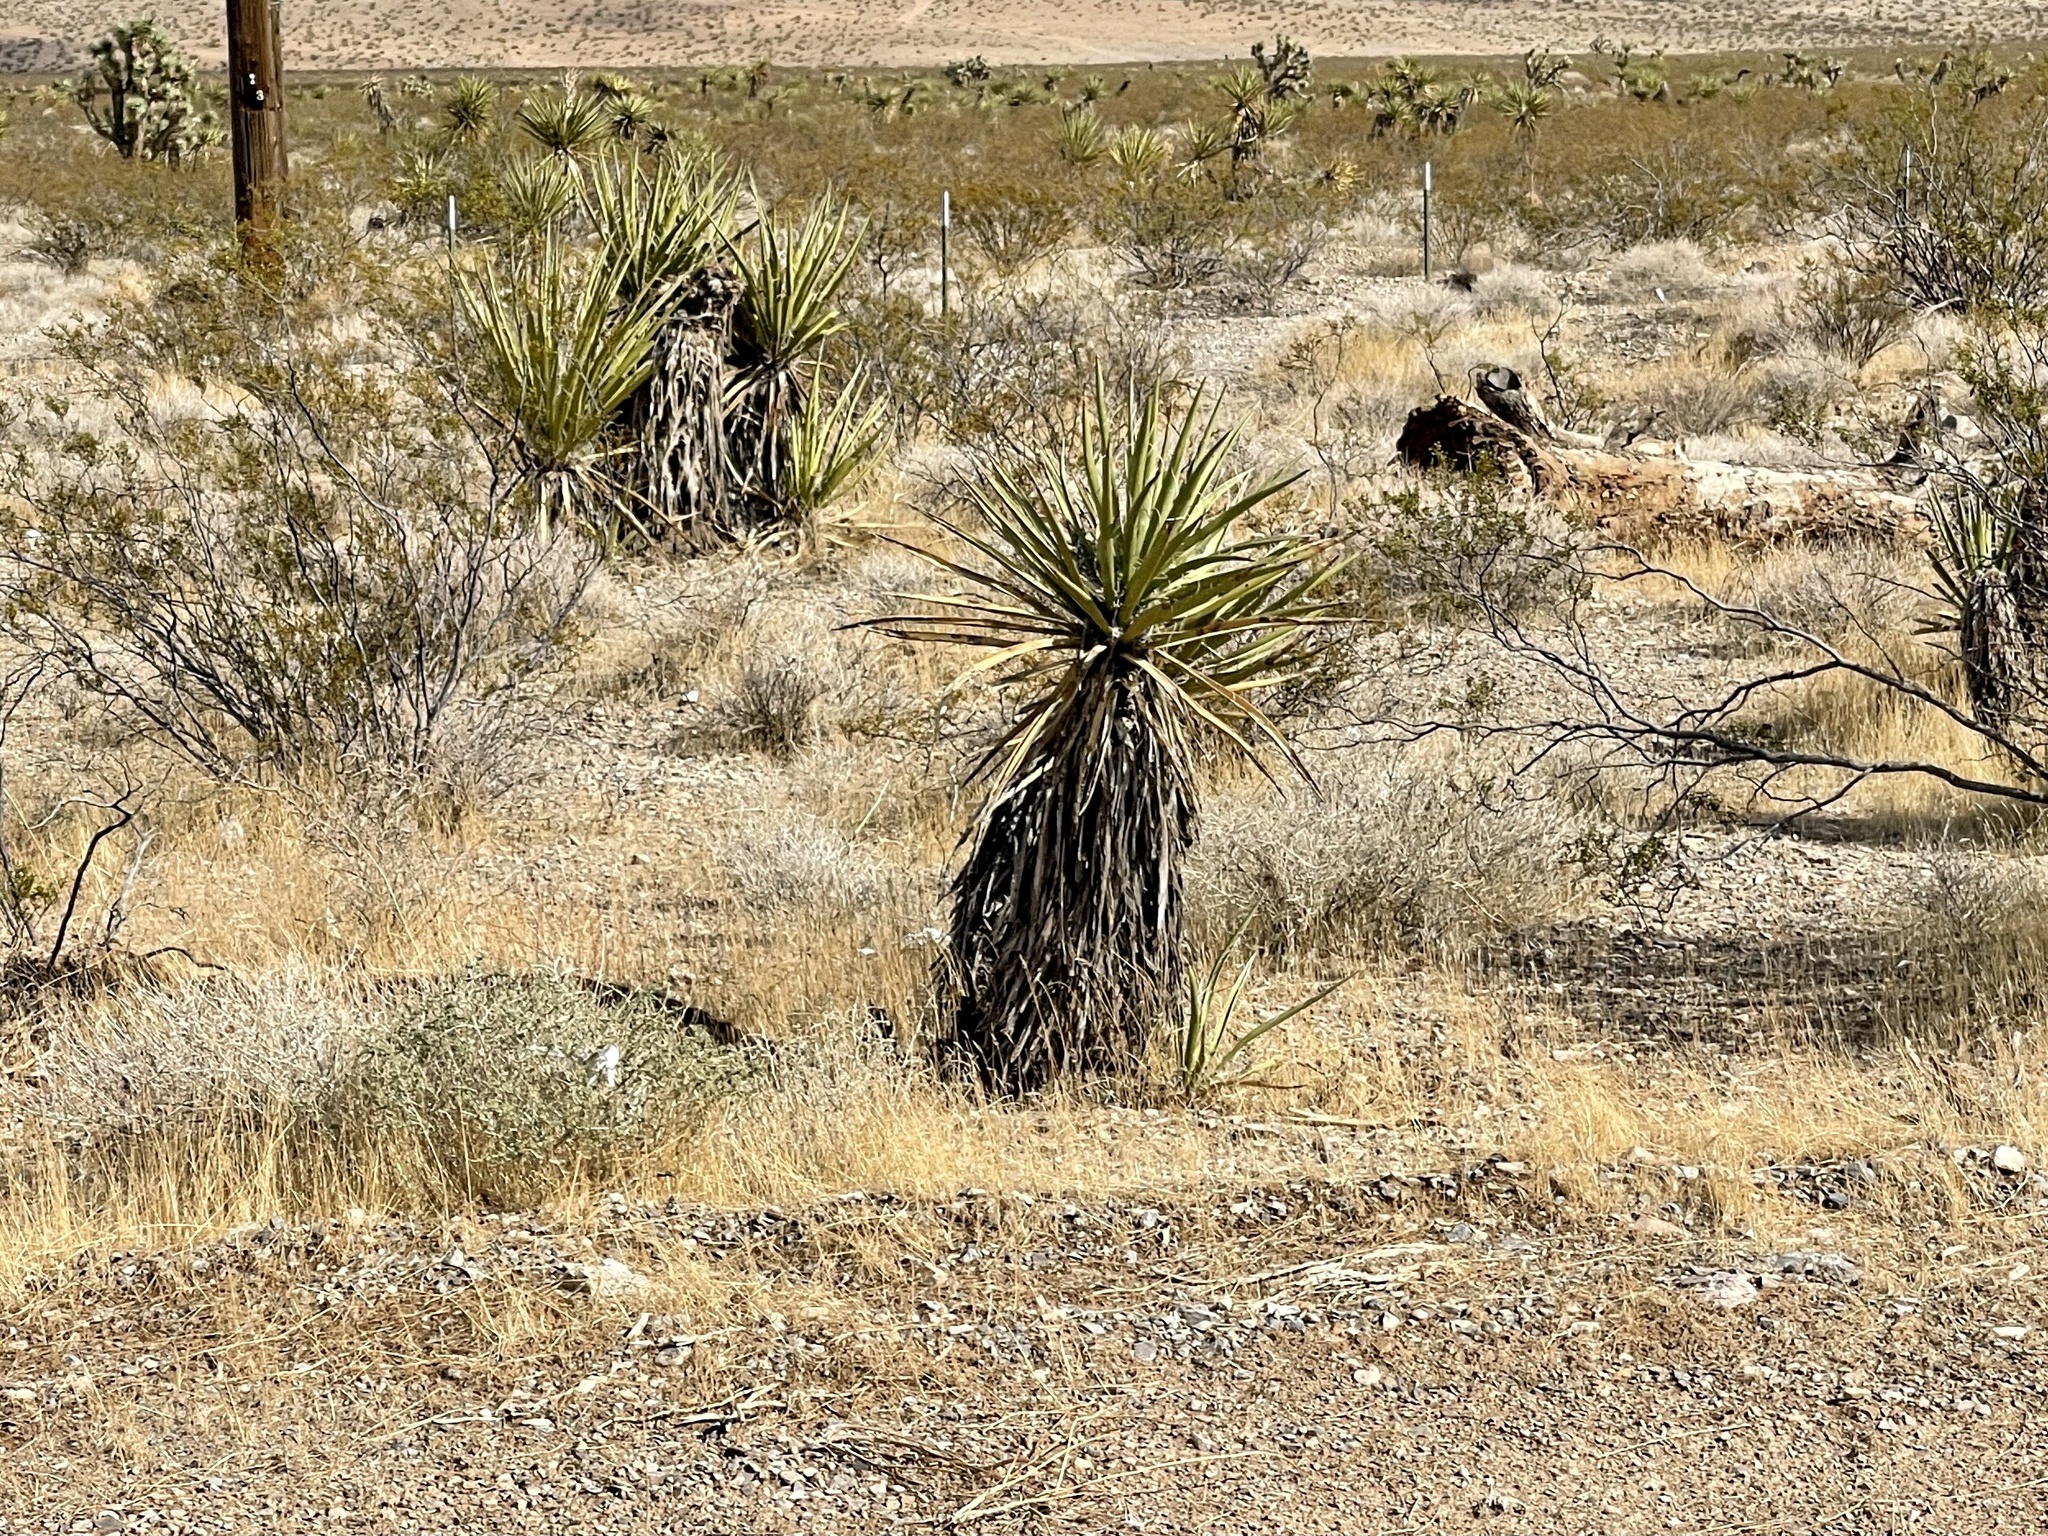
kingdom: Plantae
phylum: Tracheophyta
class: Liliopsida
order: Asparagales
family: Asparagaceae
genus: Yucca
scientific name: Yucca schidigera
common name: Mojave yucca
